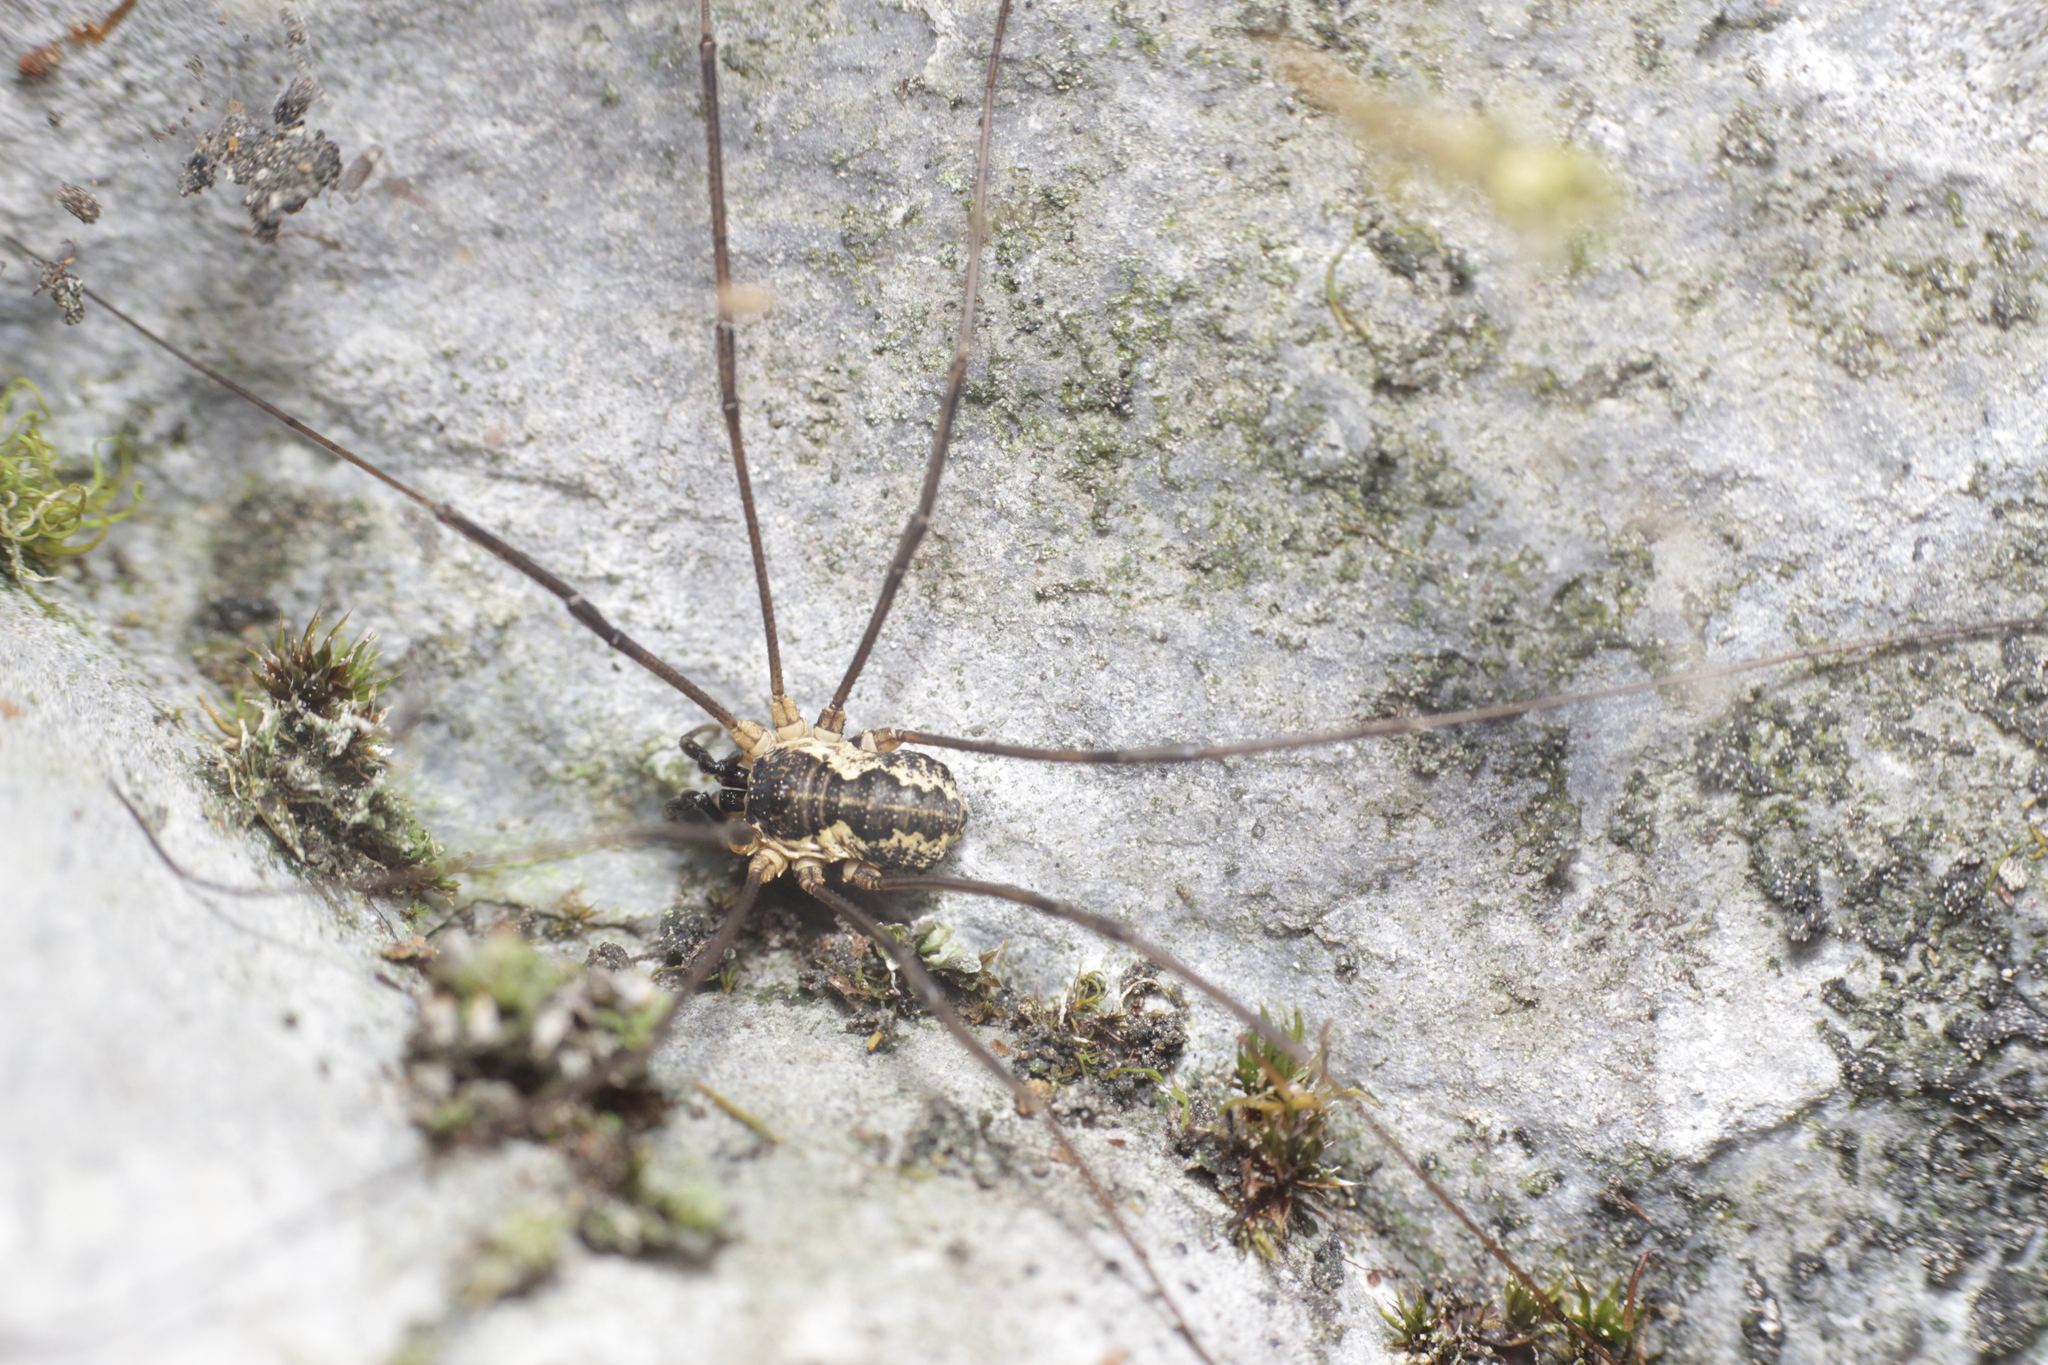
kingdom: Animalia
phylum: Arthropoda
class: Arachnida
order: Opiliones
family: Phalangiidae
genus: Mitopus
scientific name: Mitopus morio
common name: Saddleback harvestman
